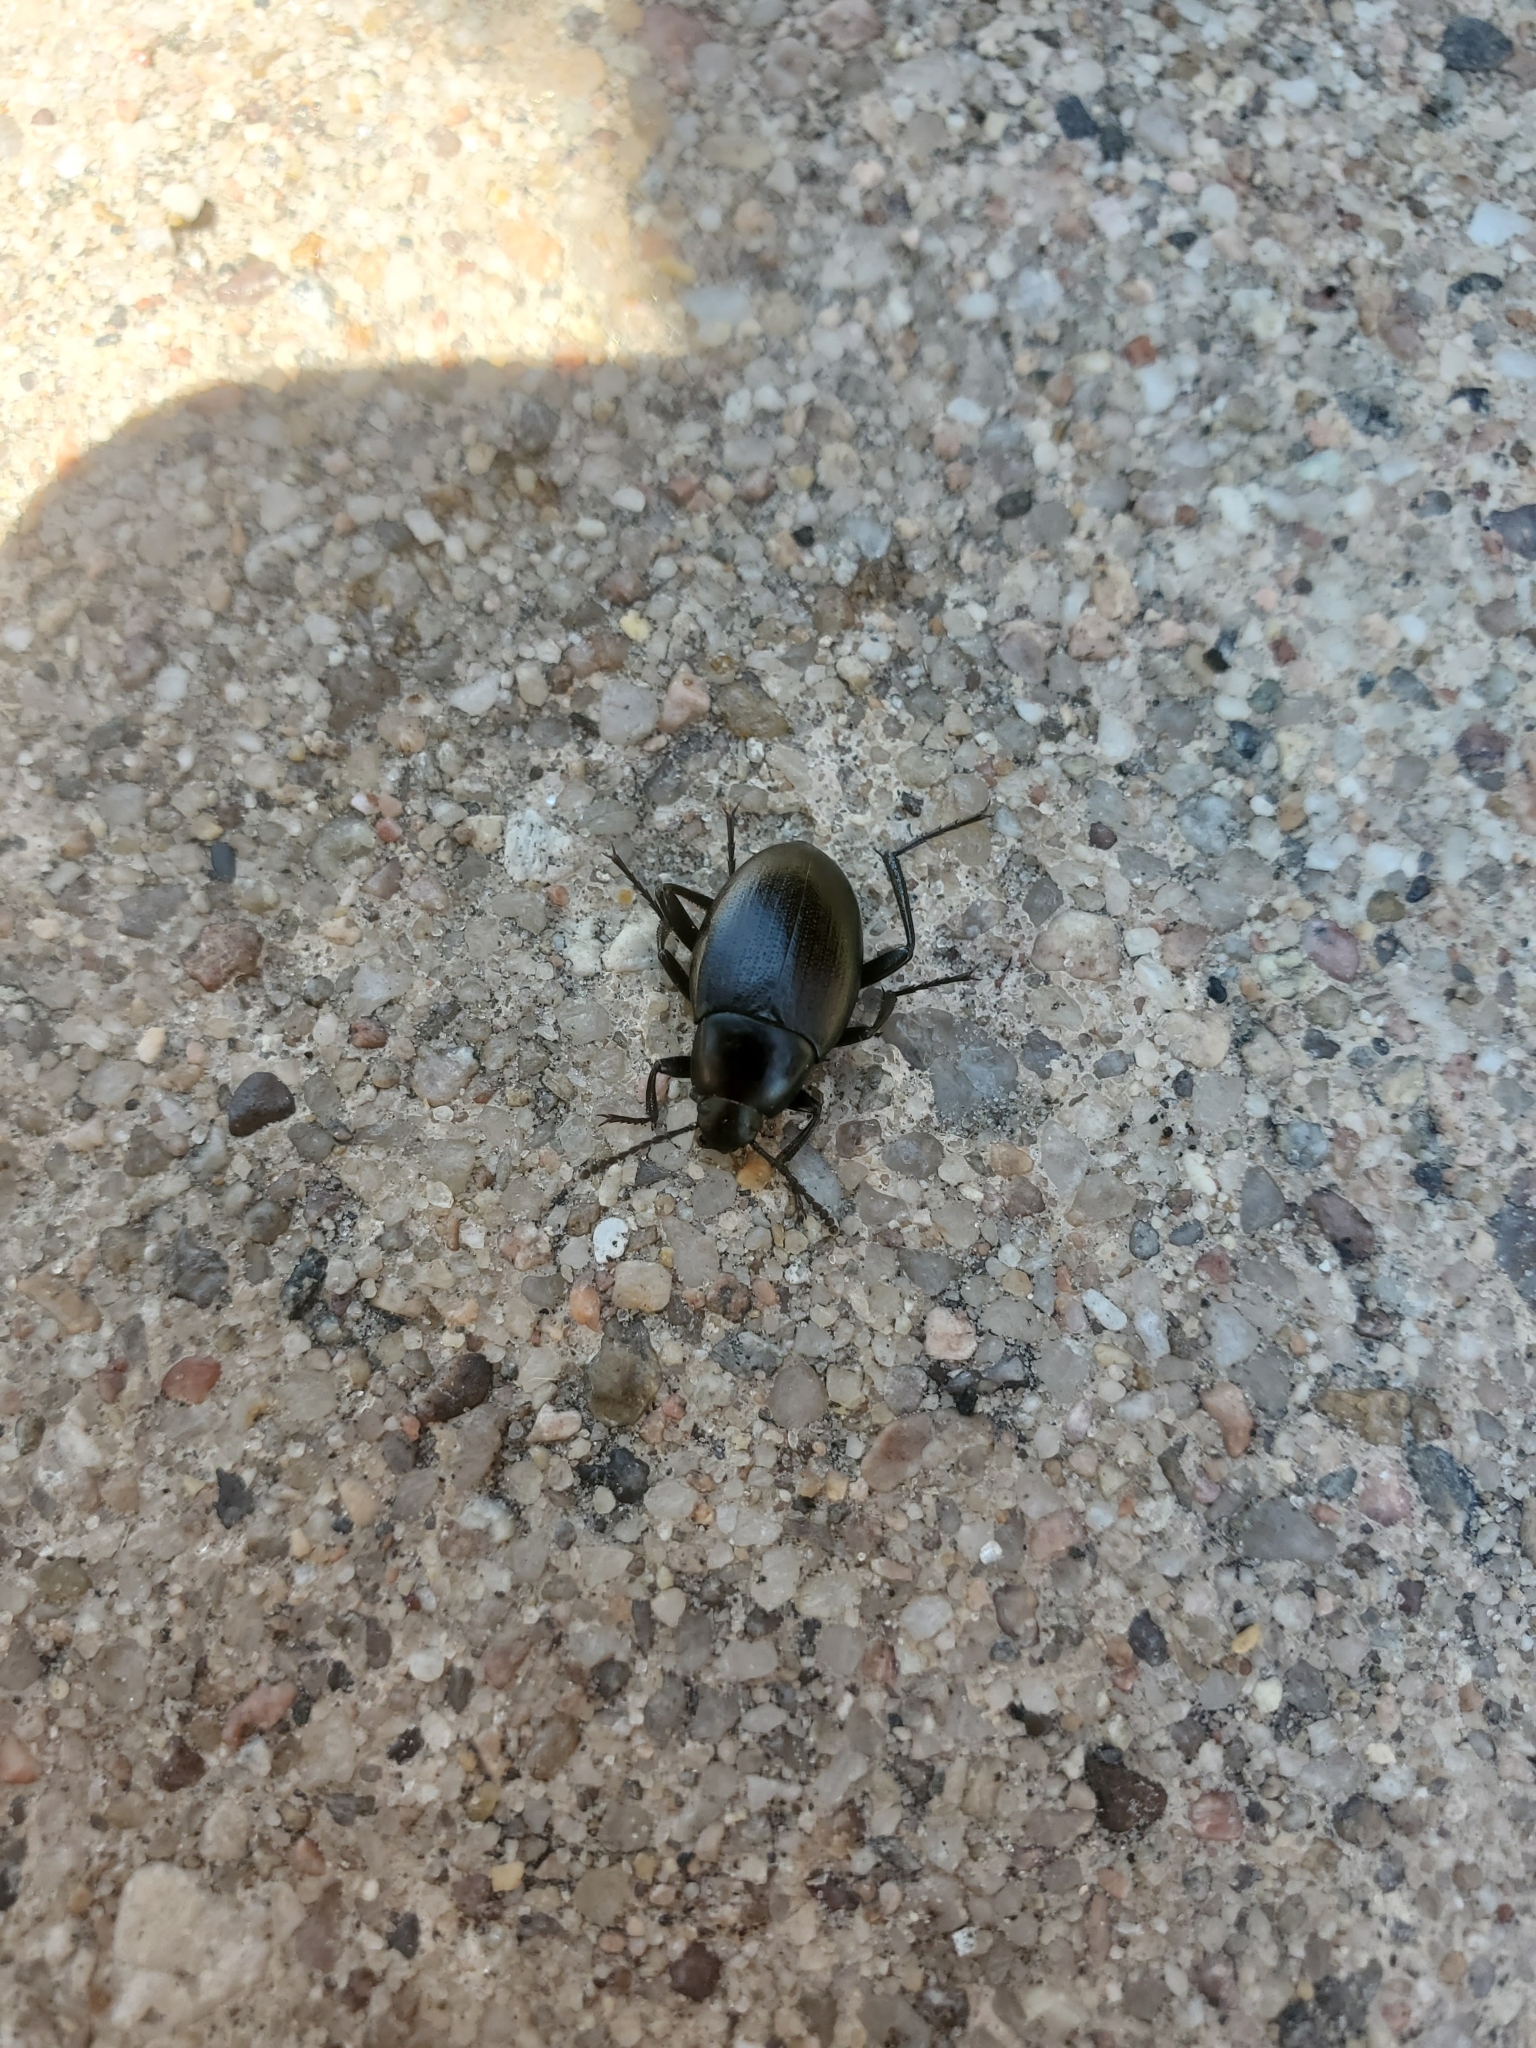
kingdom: Animalia
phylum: Arthropoda
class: Insecta
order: Coleoptera
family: Tenebrionidae
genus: Eleodes
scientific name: Eleodes fusiformis
